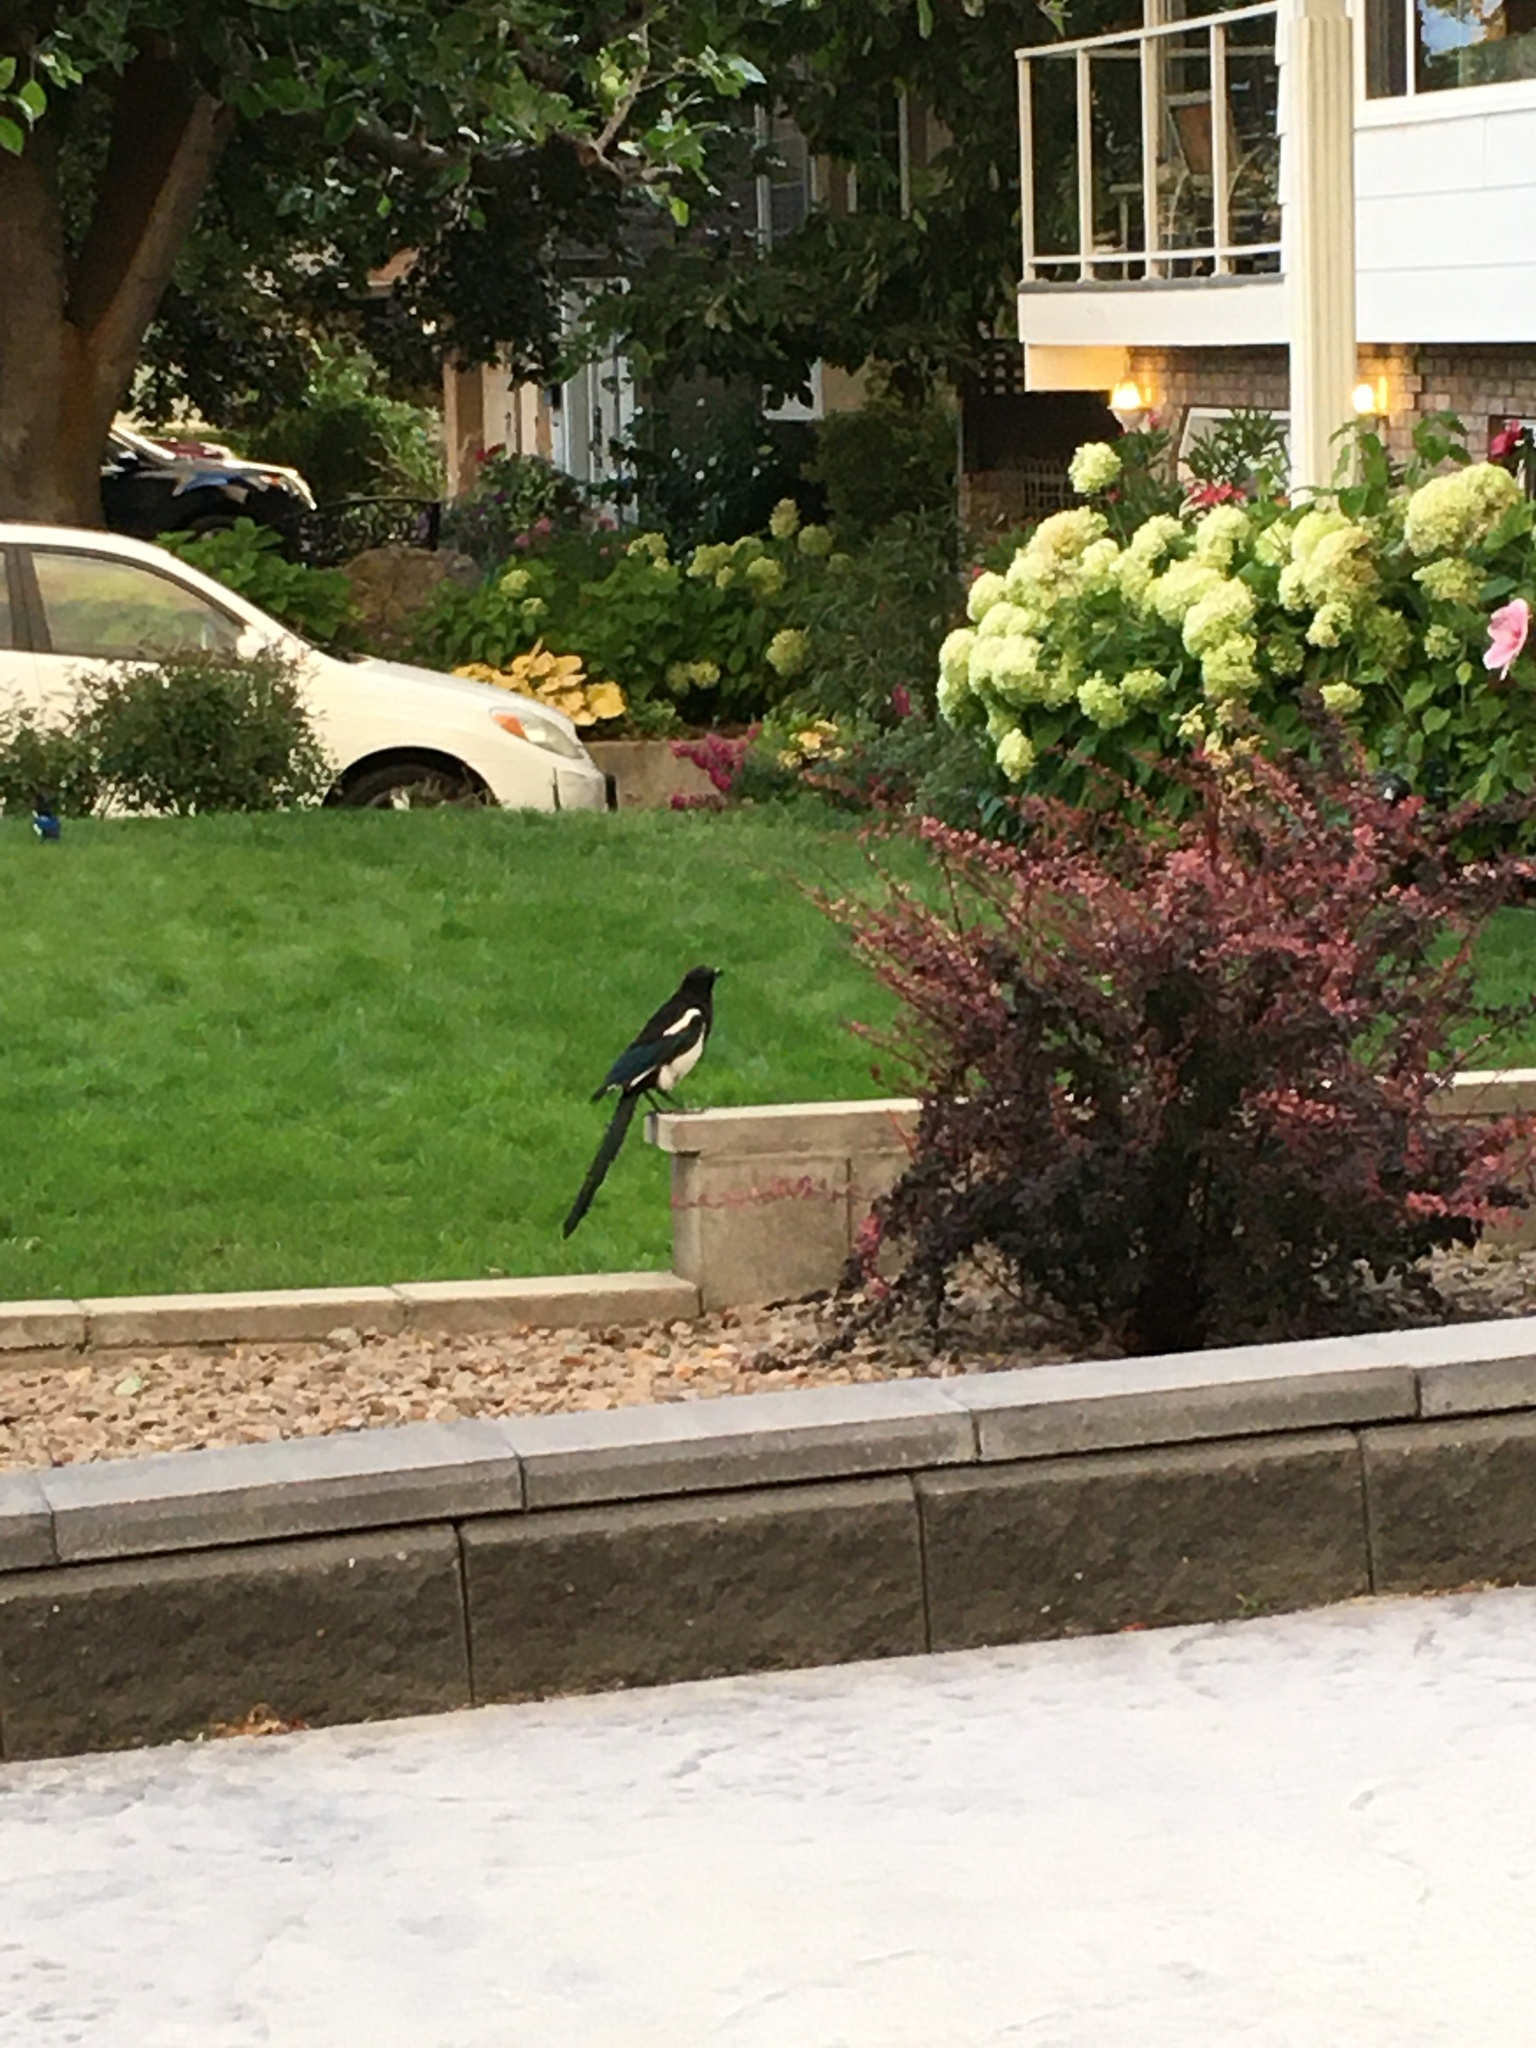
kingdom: Animalia
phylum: Chordata
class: Aves
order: Passeriformes
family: Corvidae
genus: Pica
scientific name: Pica hudsonia
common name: Black-billed magpie
